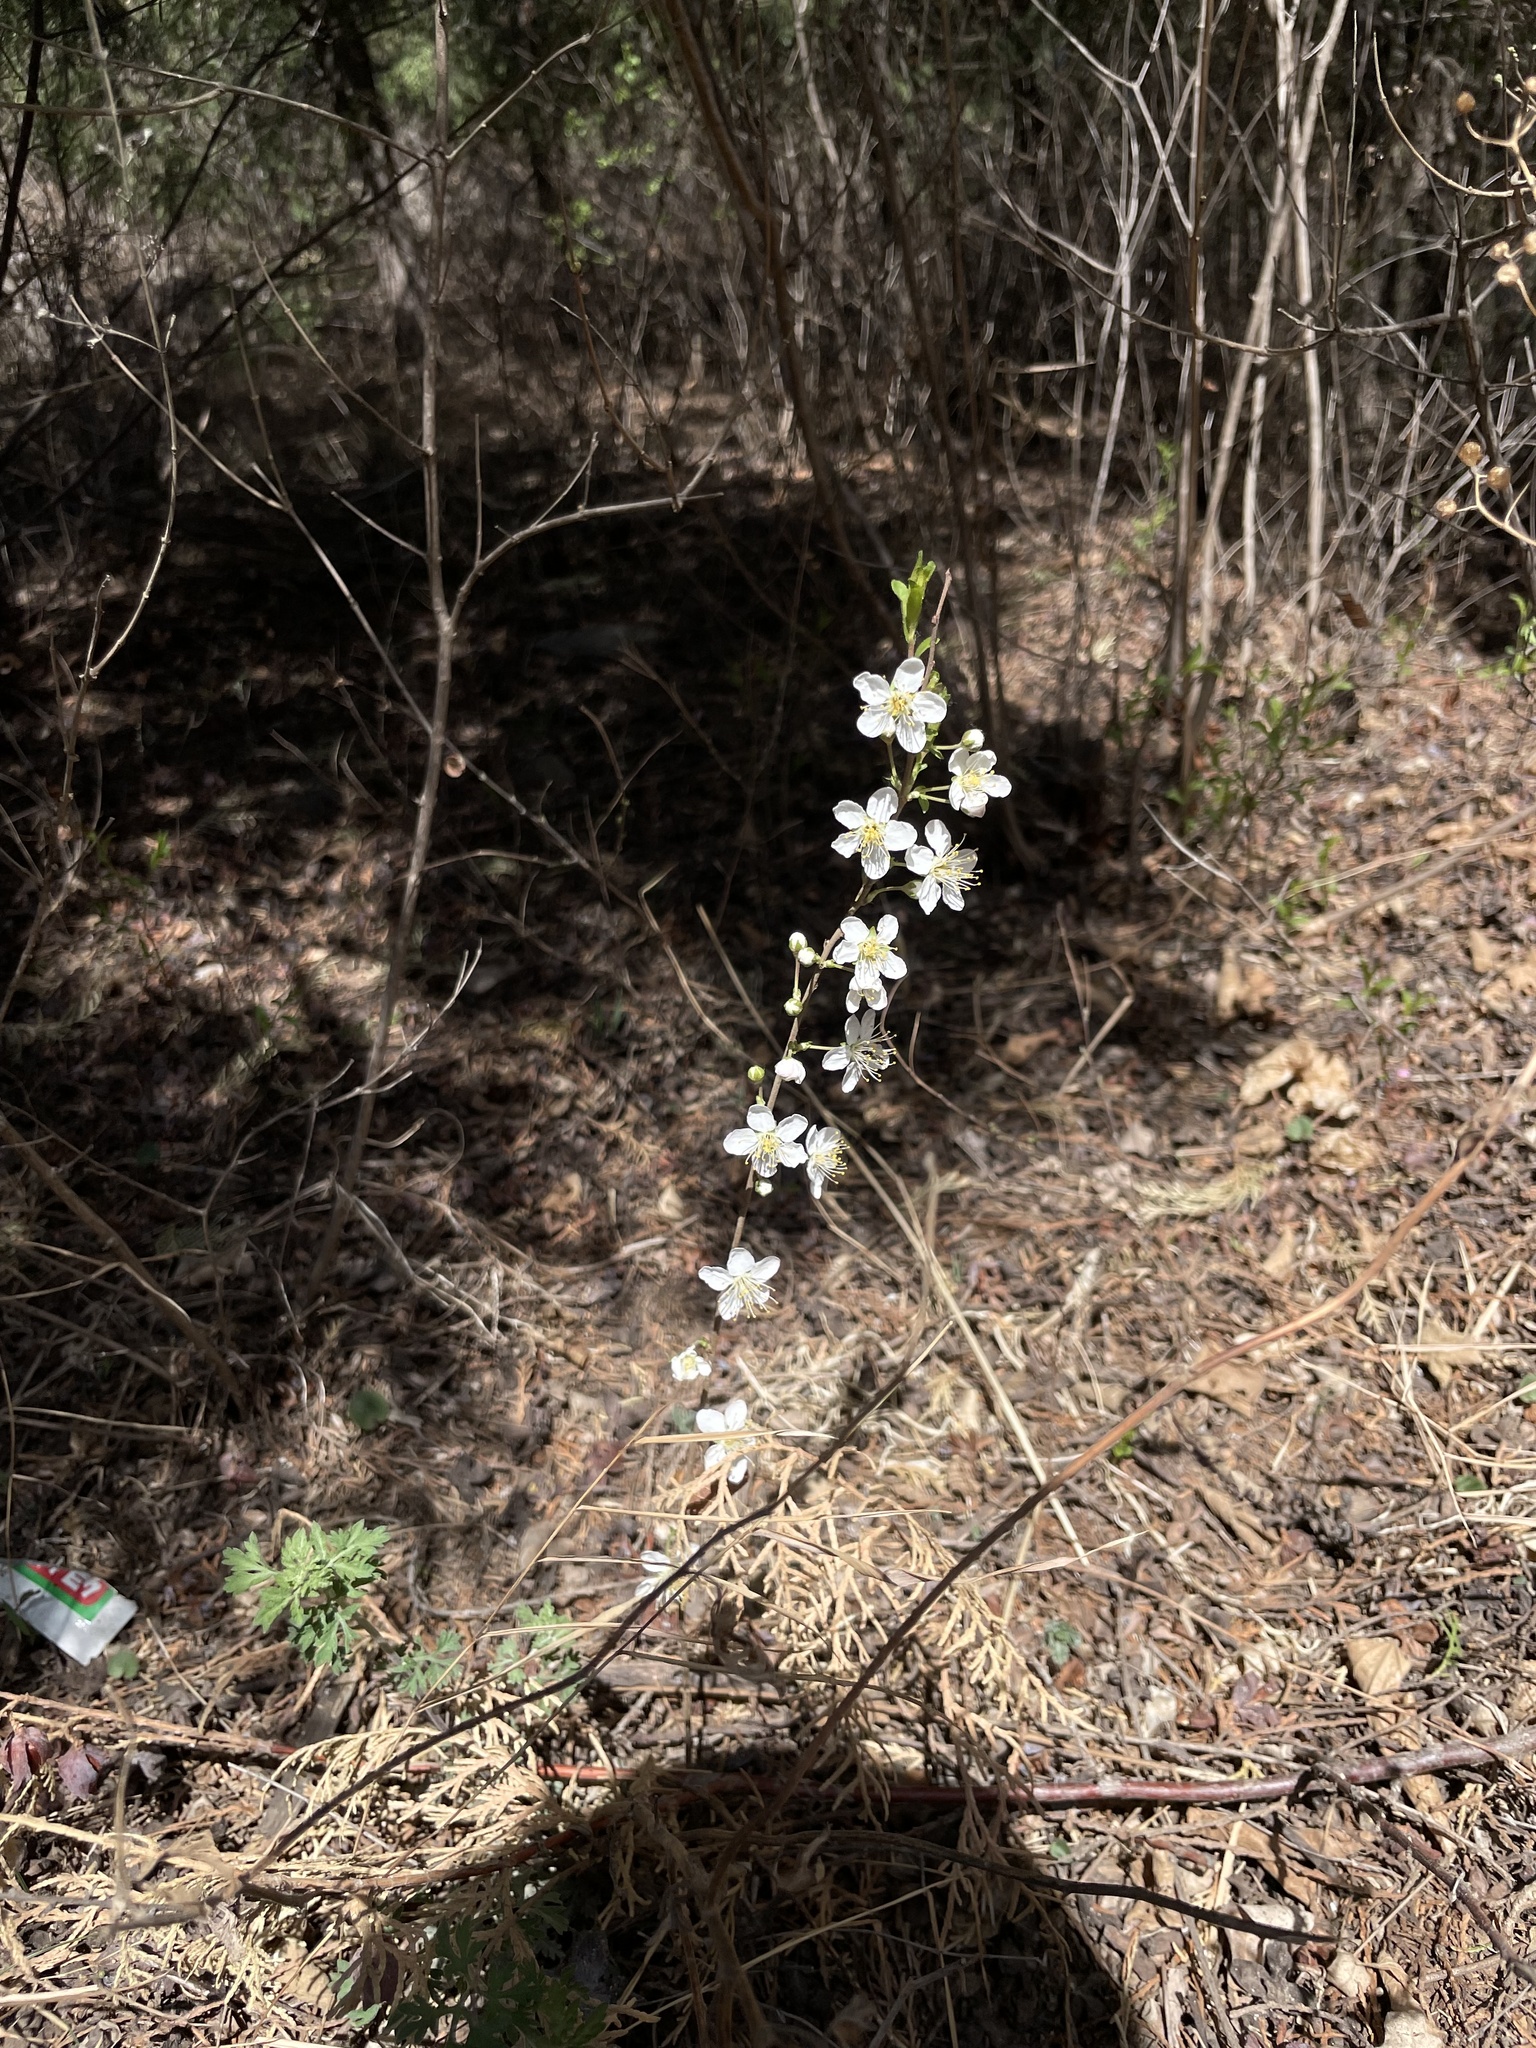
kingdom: Plantae
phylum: Tracheophyta
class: Magnoliopsida
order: Rosales
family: Rosaceae
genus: Prunus
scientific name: Prunus humilis
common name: Humble bush cherry
